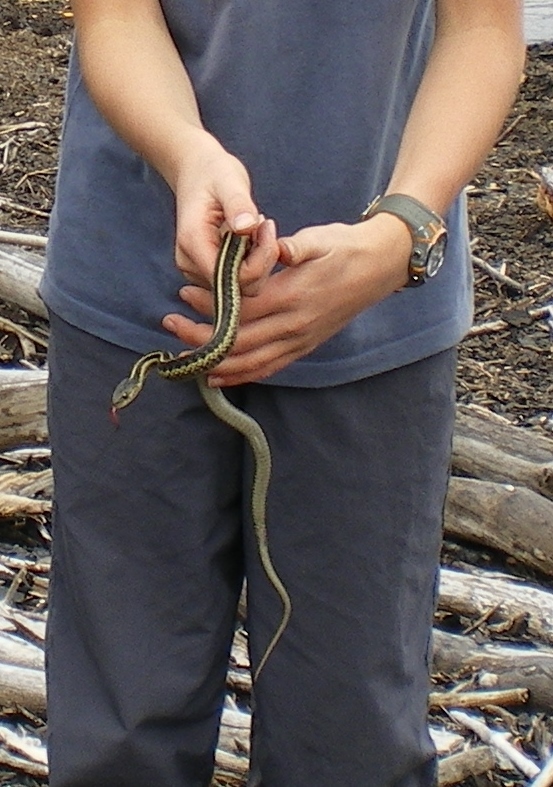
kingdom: Animalia
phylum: Chordata
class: Squamata
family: Colubridae
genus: Thamnophis
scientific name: Thamnophis sirtalis
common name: Common garter snake
